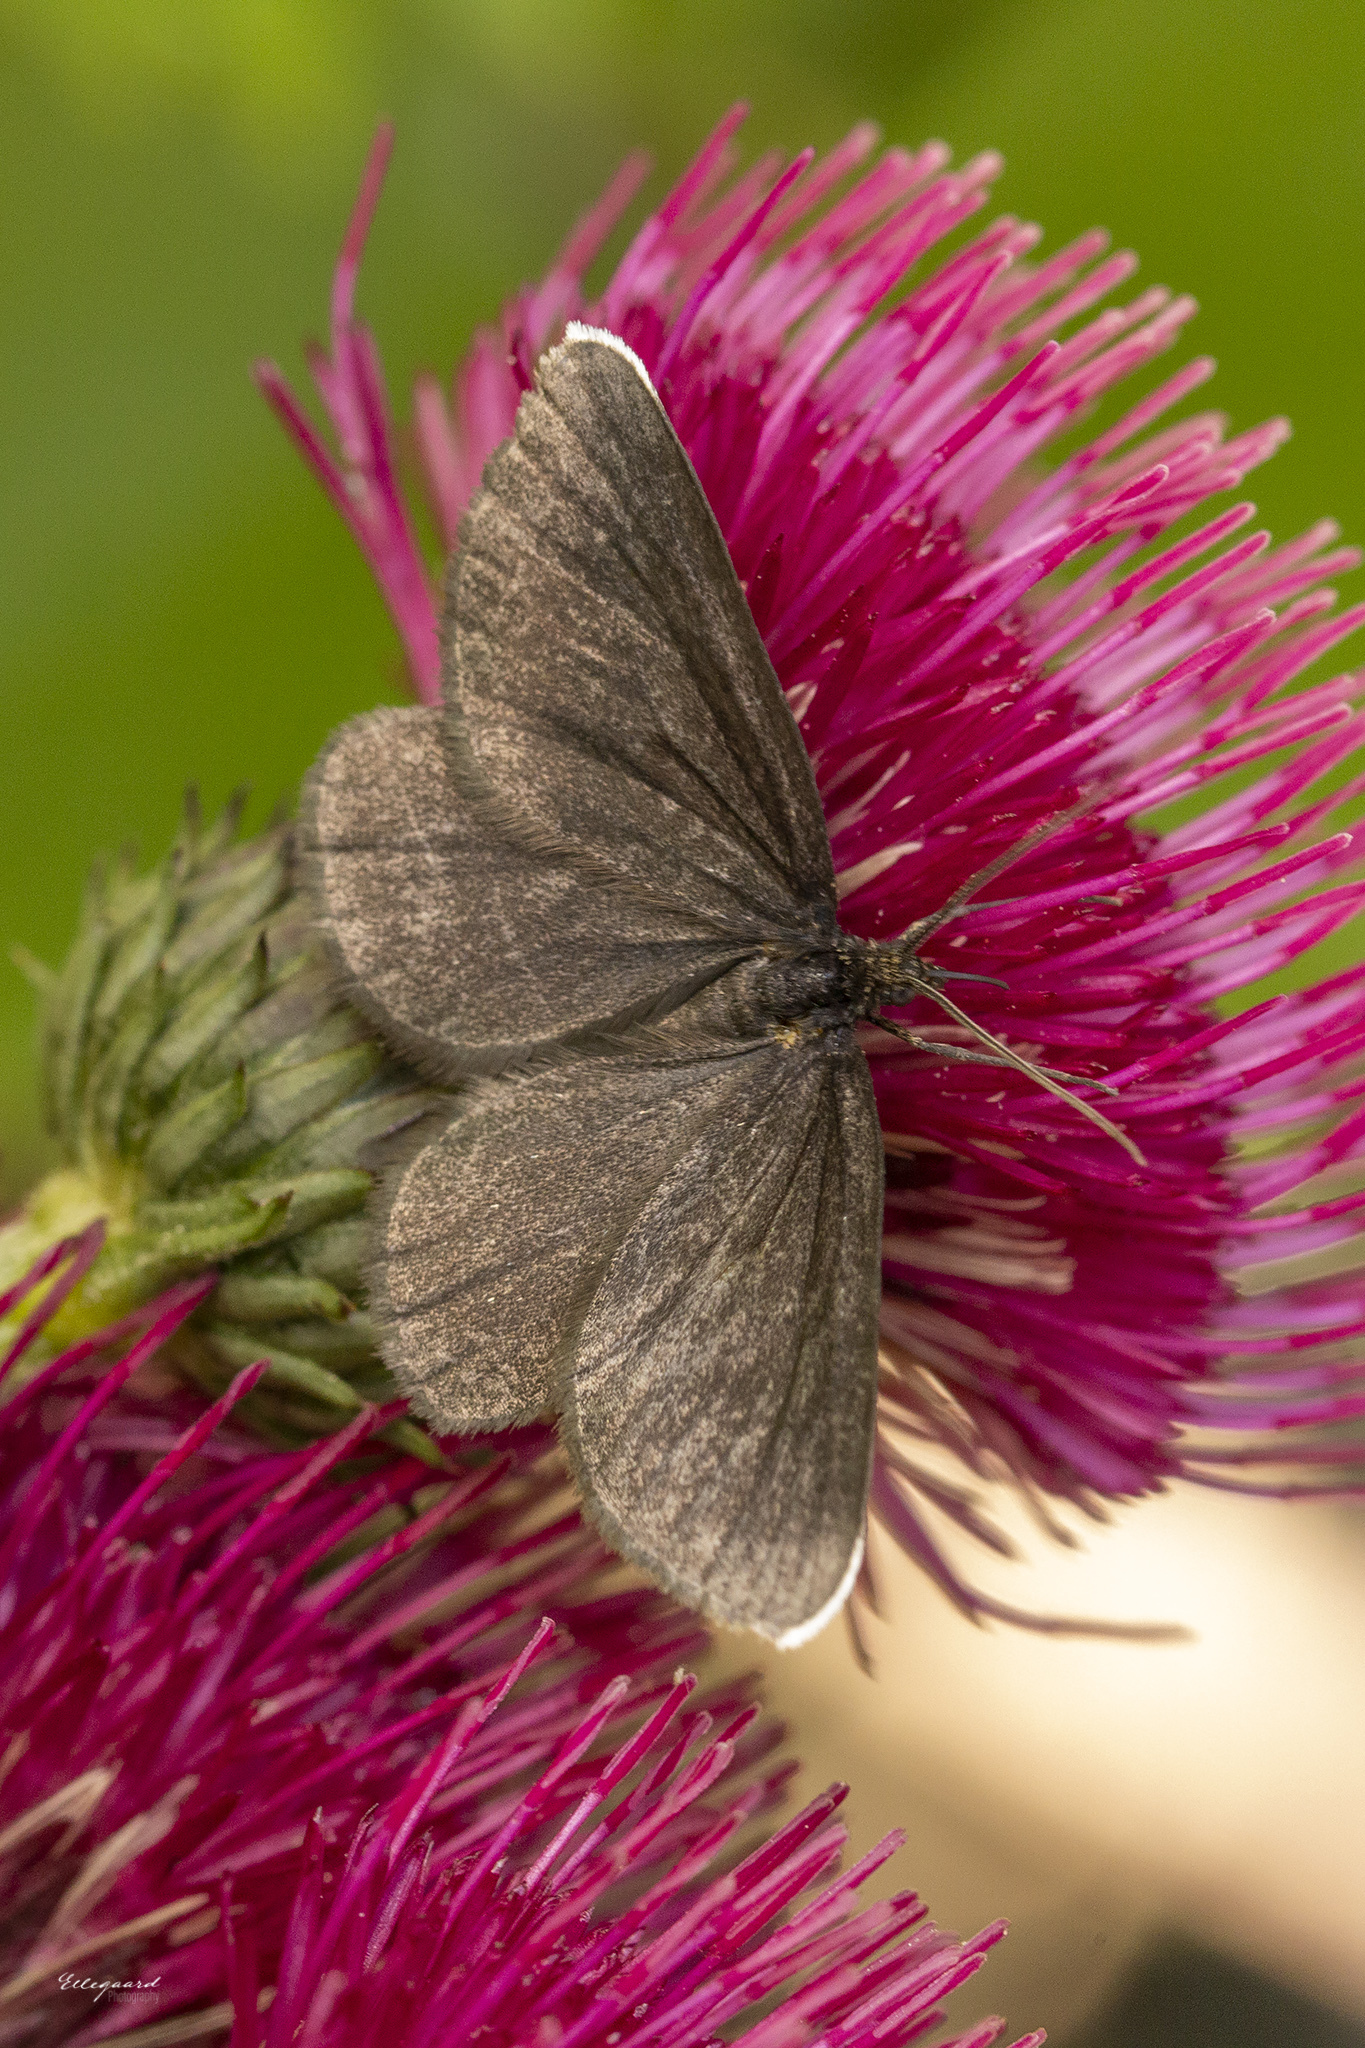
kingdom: Animalia
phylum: Arthropoda
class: Insecta
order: Lepidoptera
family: Geometridae
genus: Odezia
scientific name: Odezia atrata
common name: Chimney sweeper
